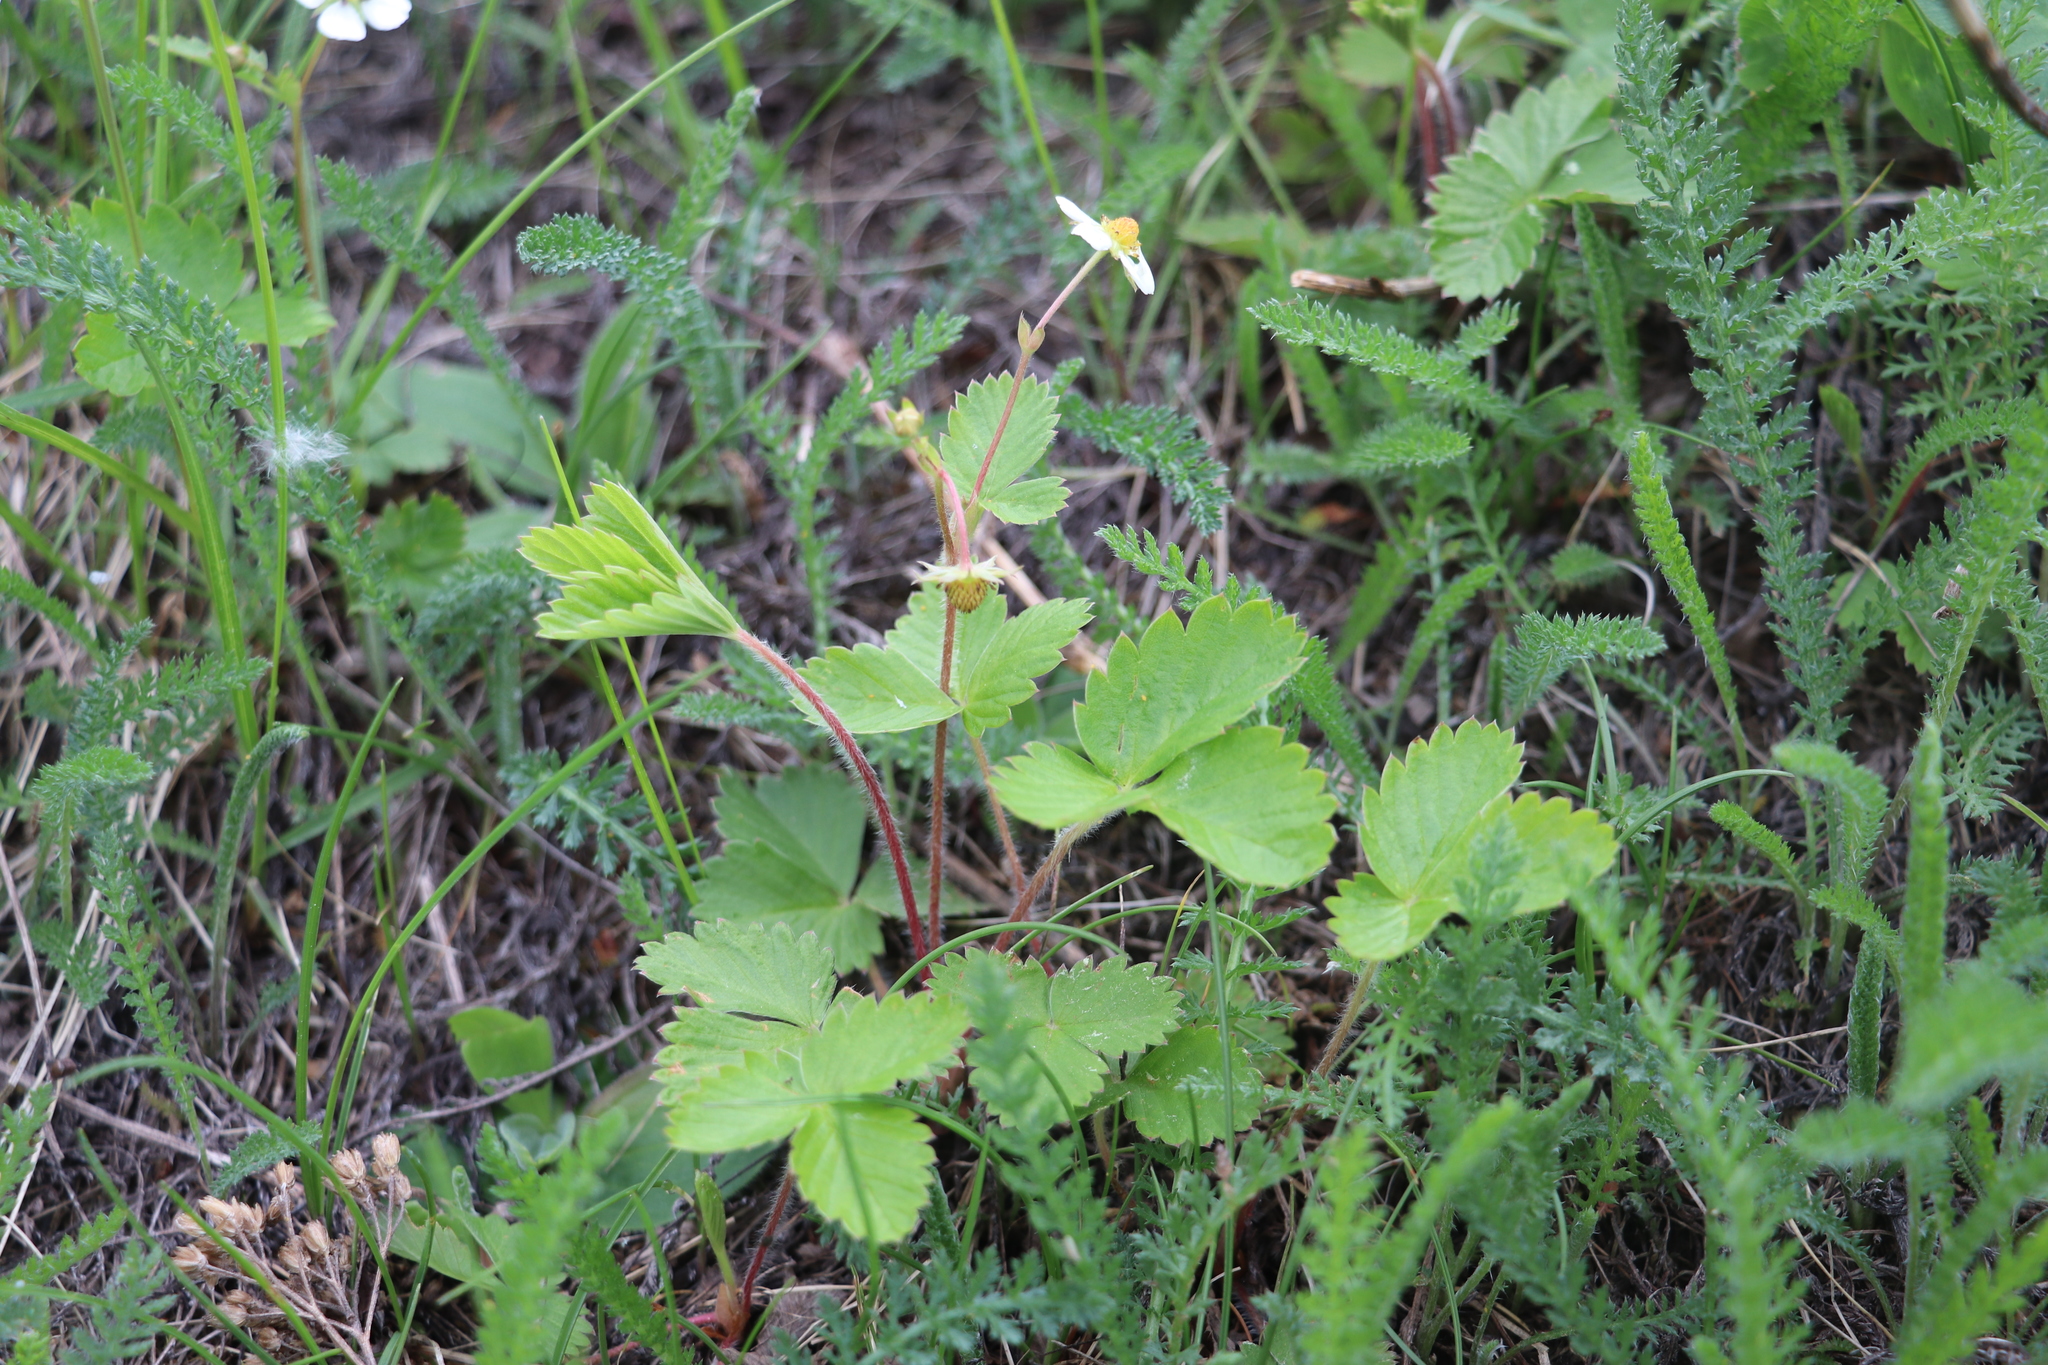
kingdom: Plantae
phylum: Tracheophyta
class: Magnoliopsida
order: Rosales
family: Rosaceae
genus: Fragaria
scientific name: Fragaria vesca
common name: Wild strawberry
